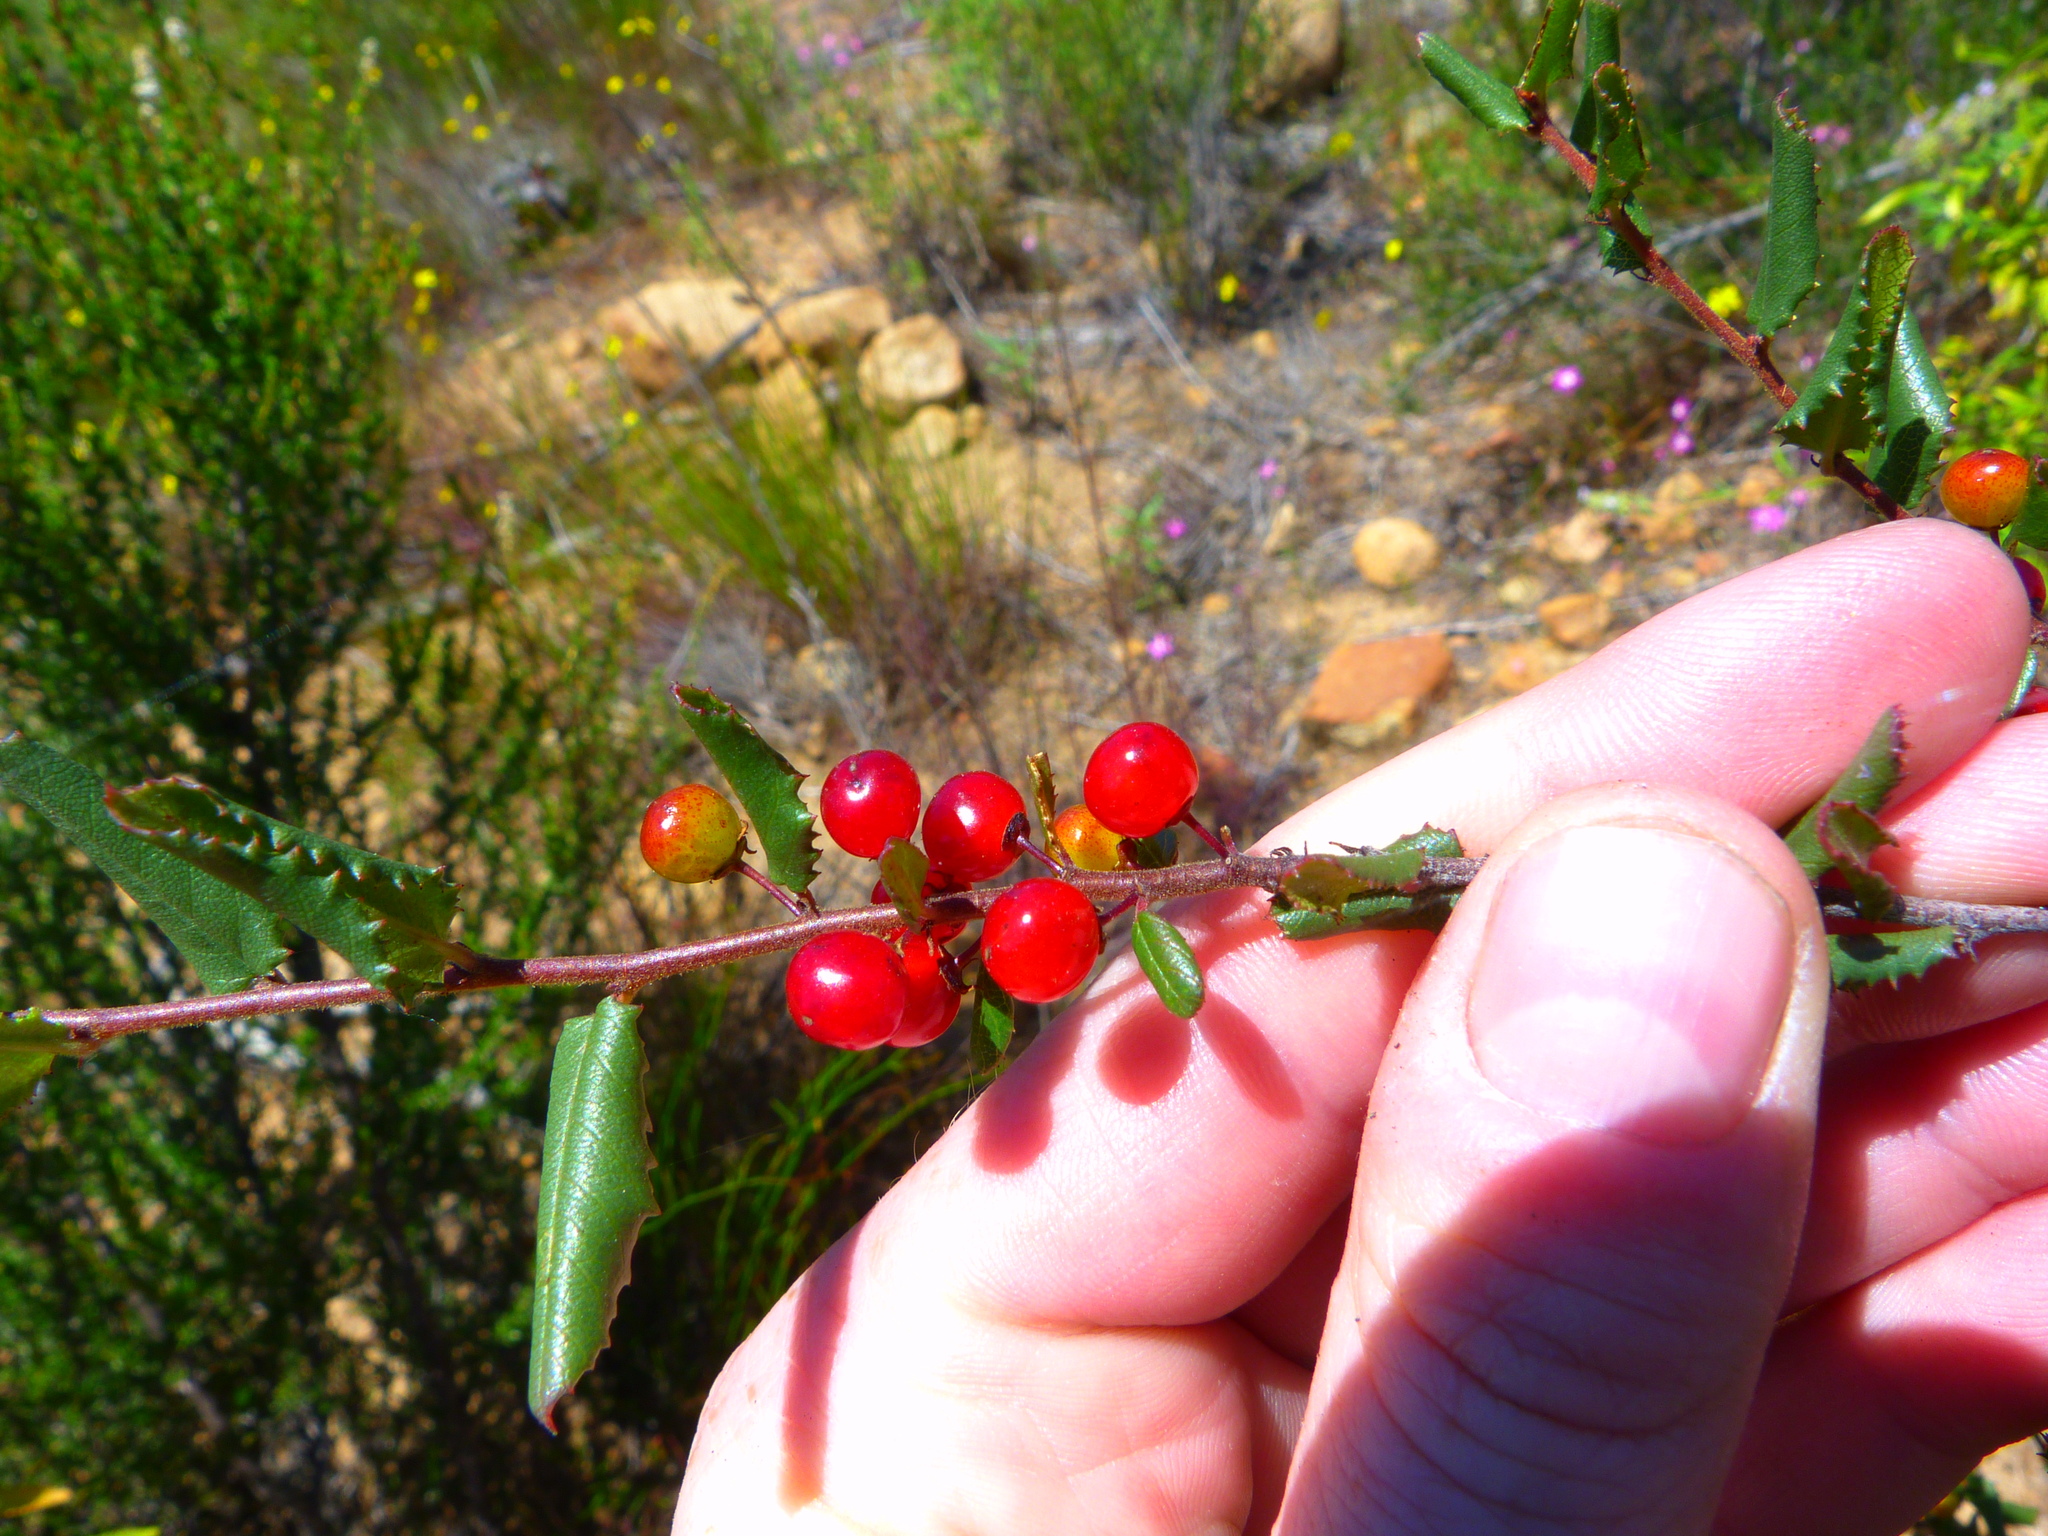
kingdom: Plantae
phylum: Tracheophyta
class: Magnoliopsida
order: Rosales
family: Rhamnaceae
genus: Endotropis
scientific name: Endotropis crocea
